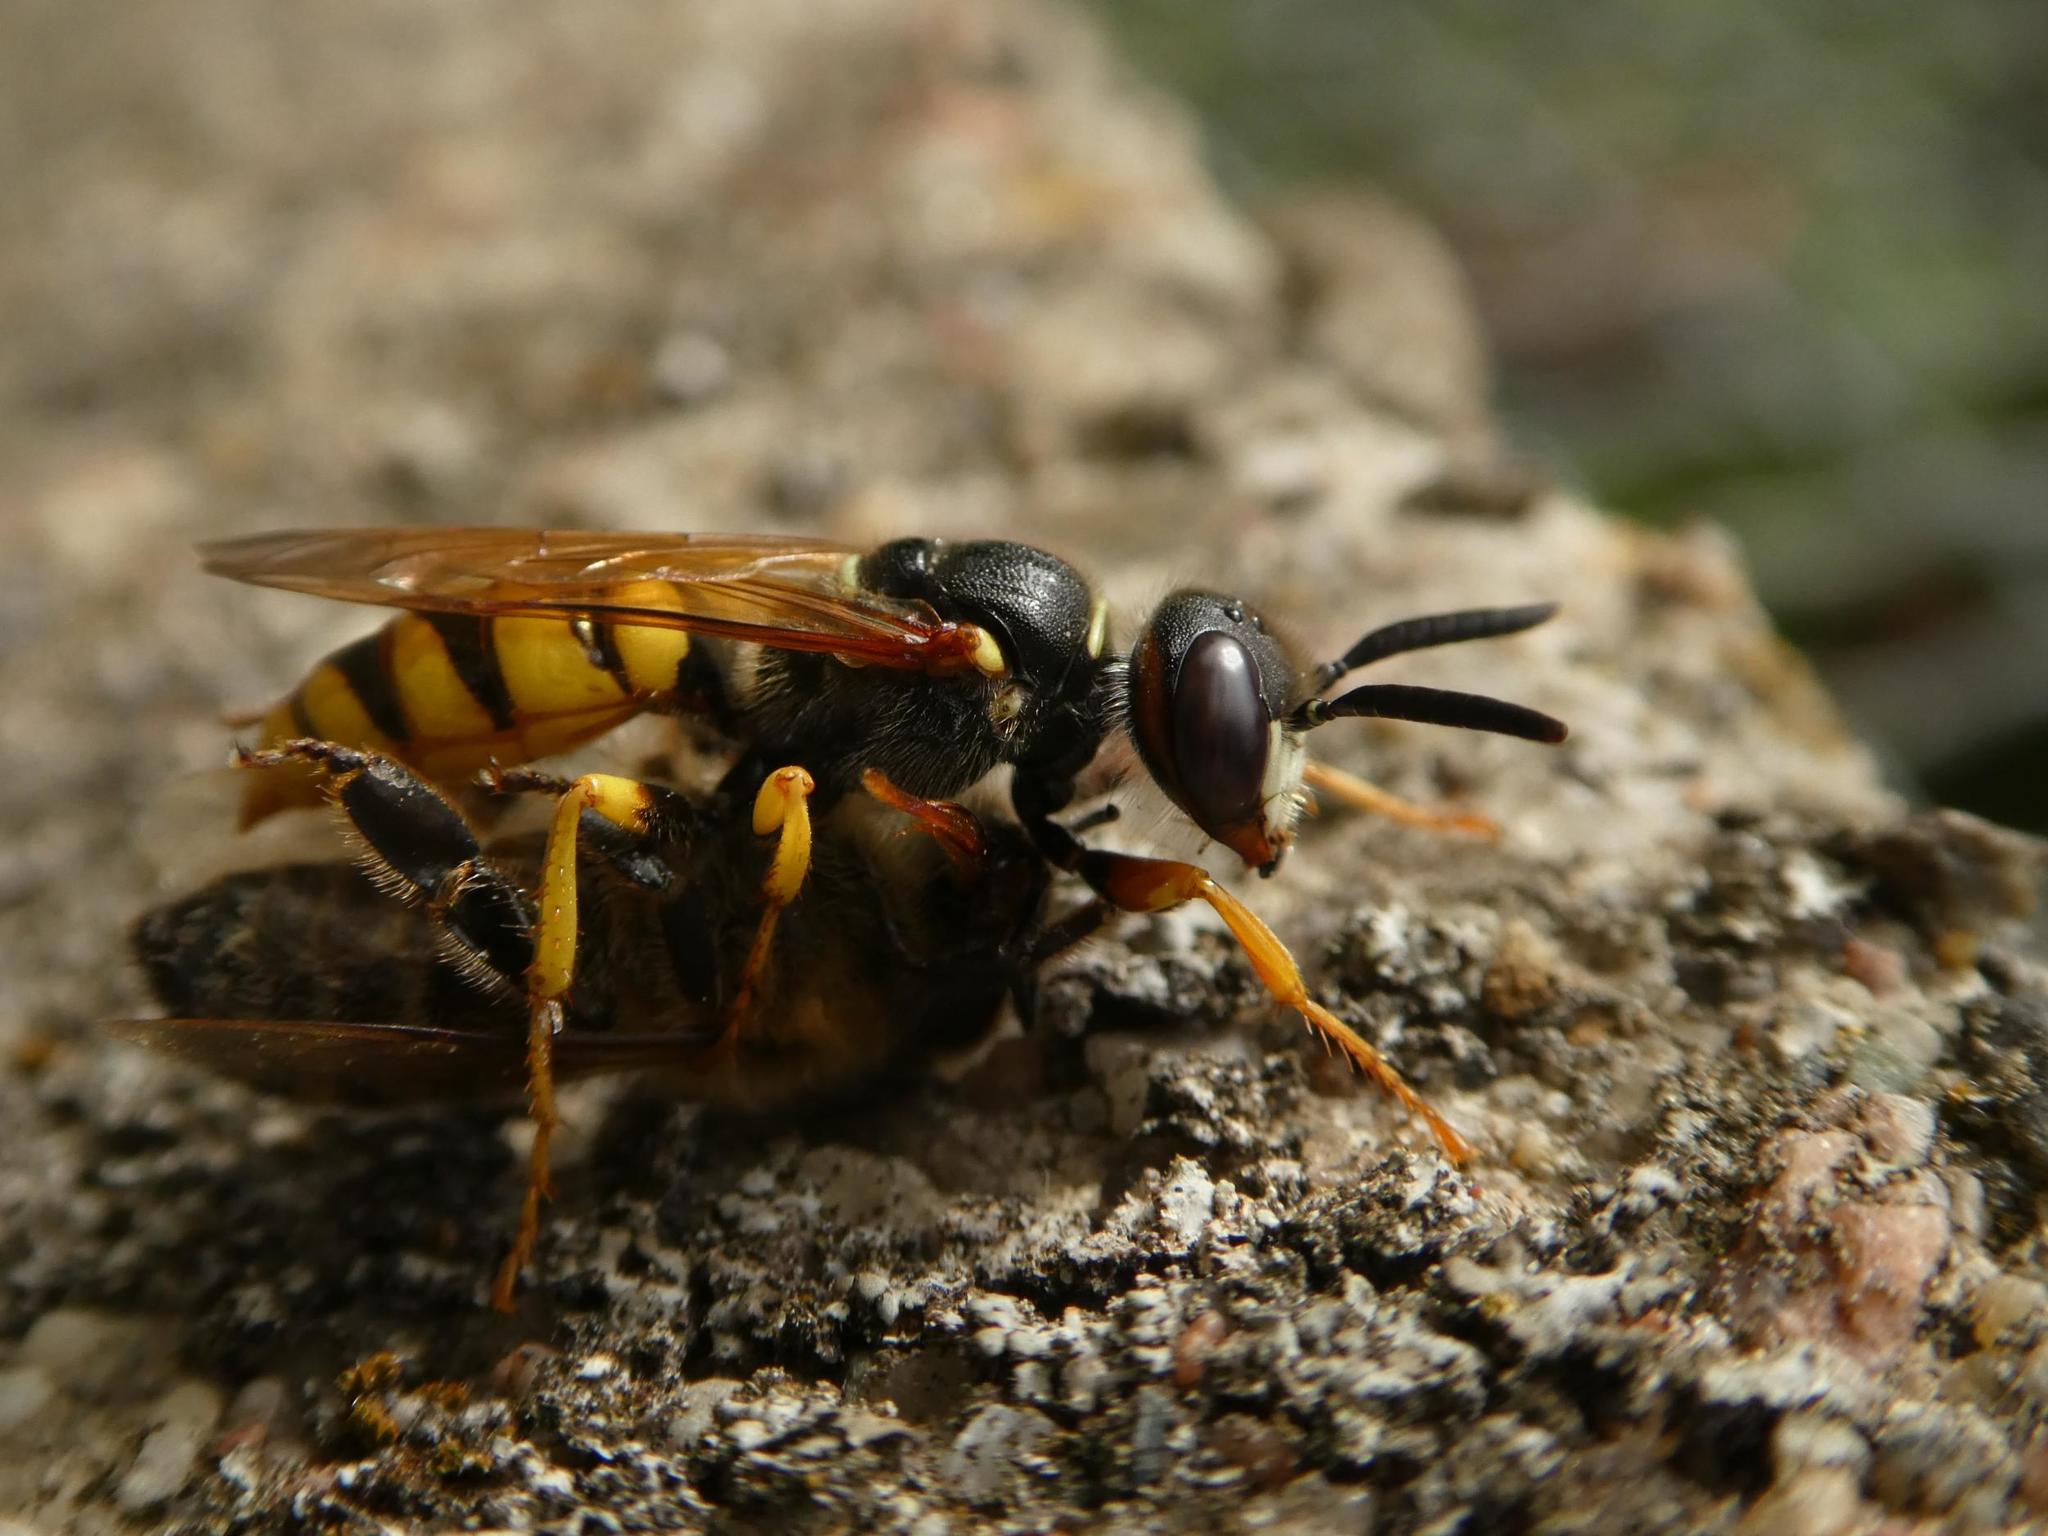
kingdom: Animalia
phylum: Arthropoda
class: Insecta
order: Hymenoptera
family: Crabronidae
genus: Philanthus
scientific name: Philanthus triangulum
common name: Bee wolf
